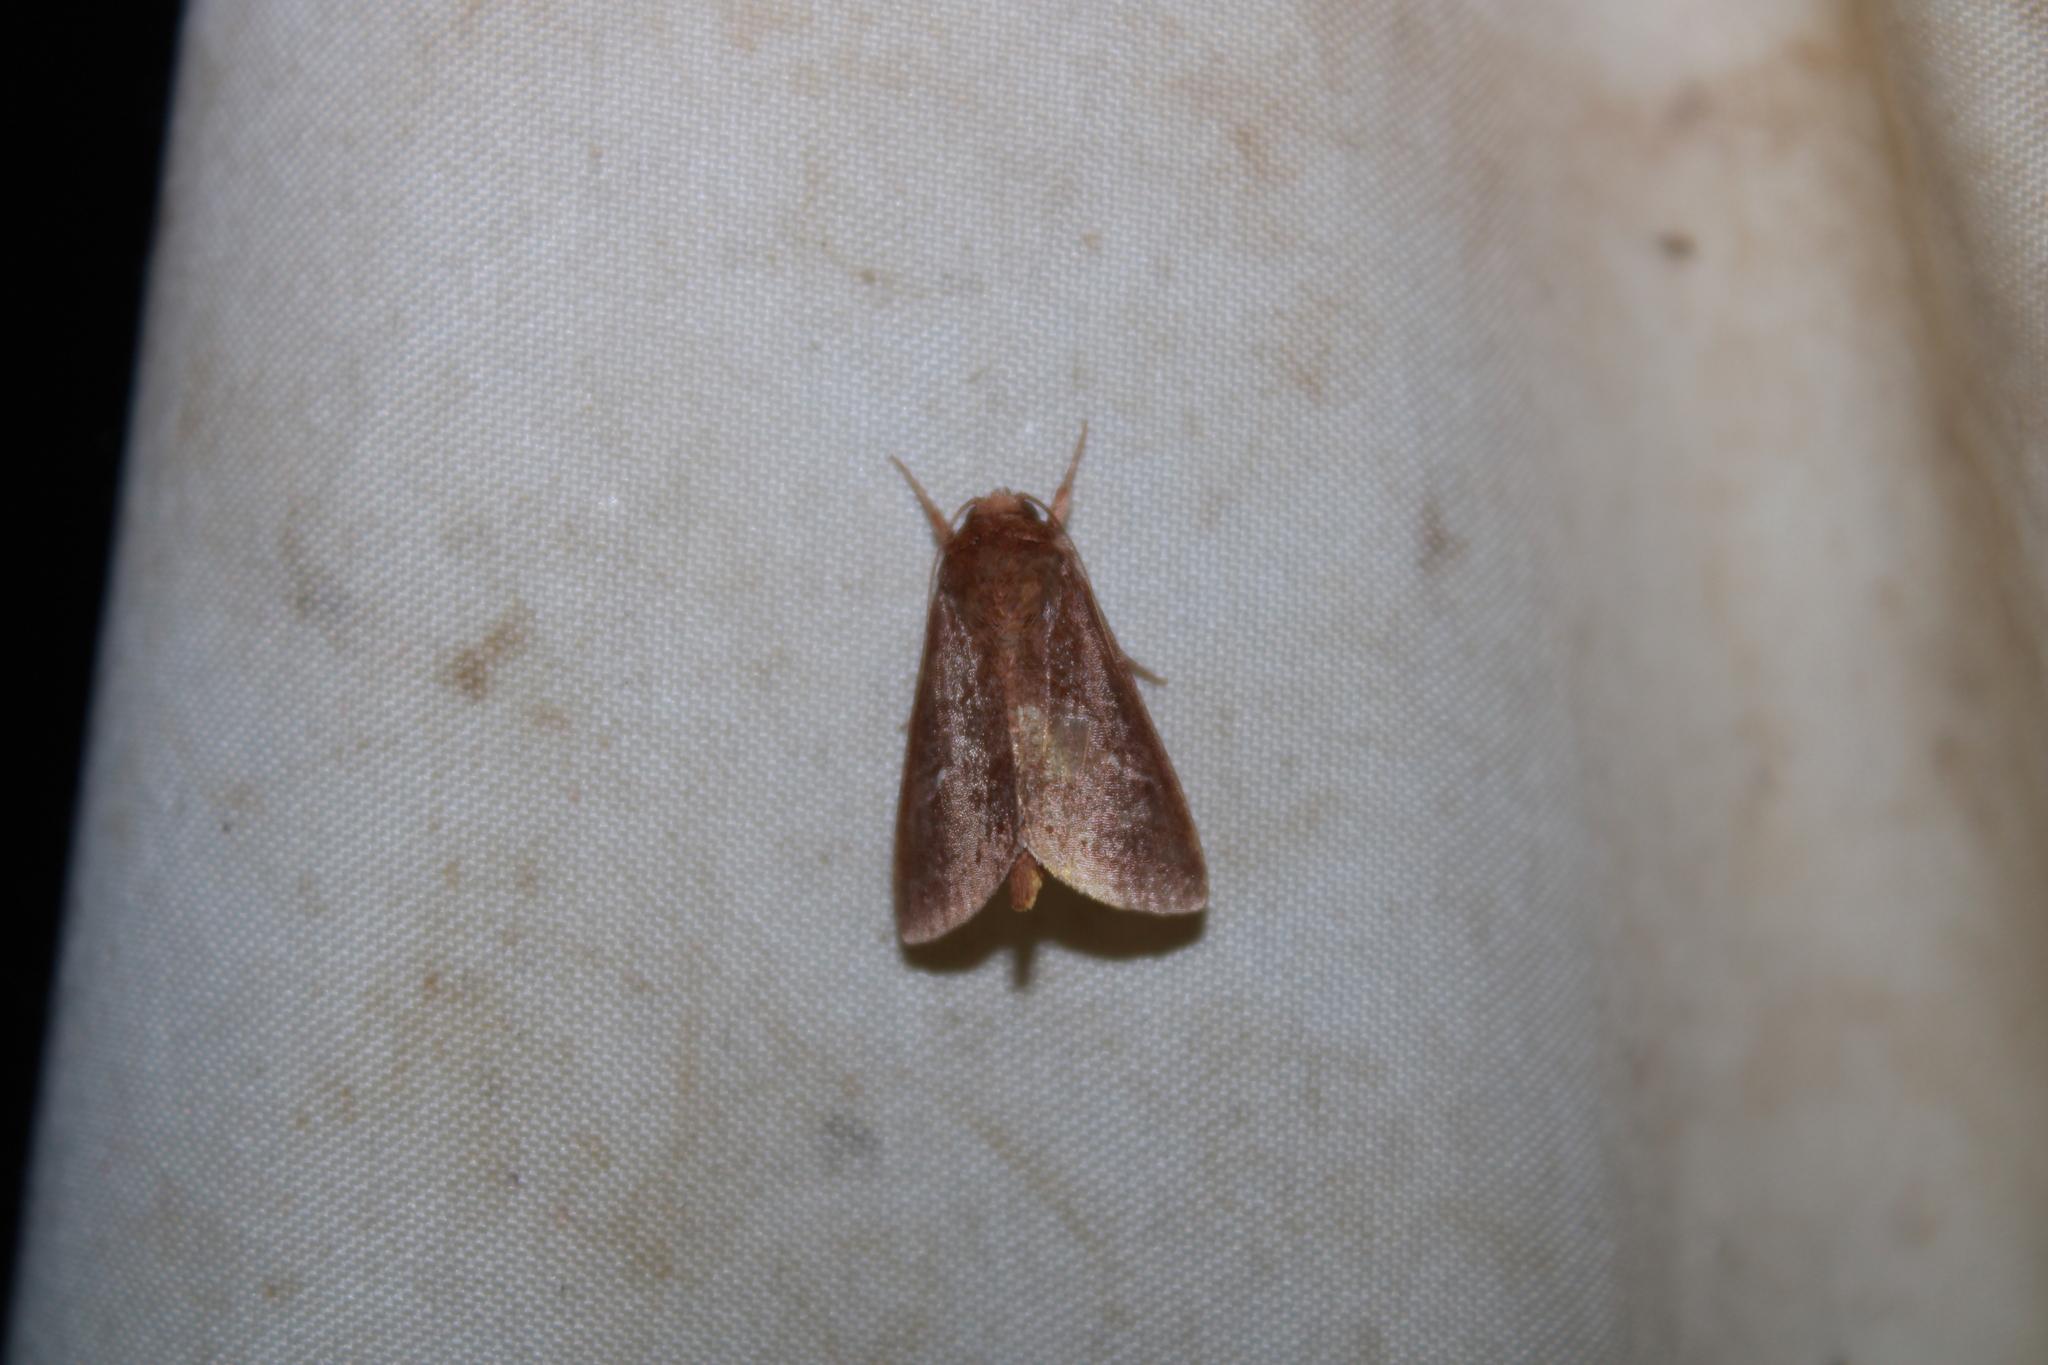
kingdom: Animalia
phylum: Arthropoda
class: Insecta
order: Lepidoptera
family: Noctuidae
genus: Phuphena
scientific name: Phuphena tura
